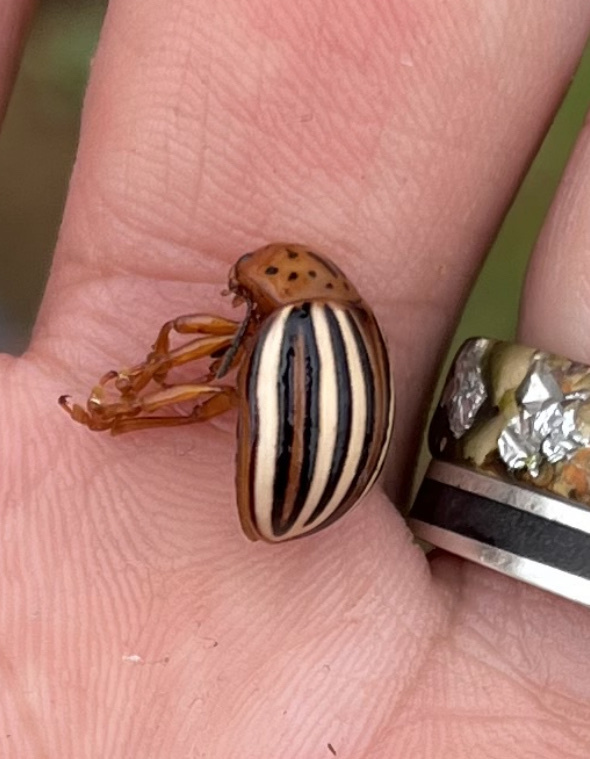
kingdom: Animalia
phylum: Arthropoda
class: Insecta
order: Coleoptera
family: Chrysomelidae
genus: Leptinotarsa
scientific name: Leptinotarsa juncta
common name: False potato beetle
